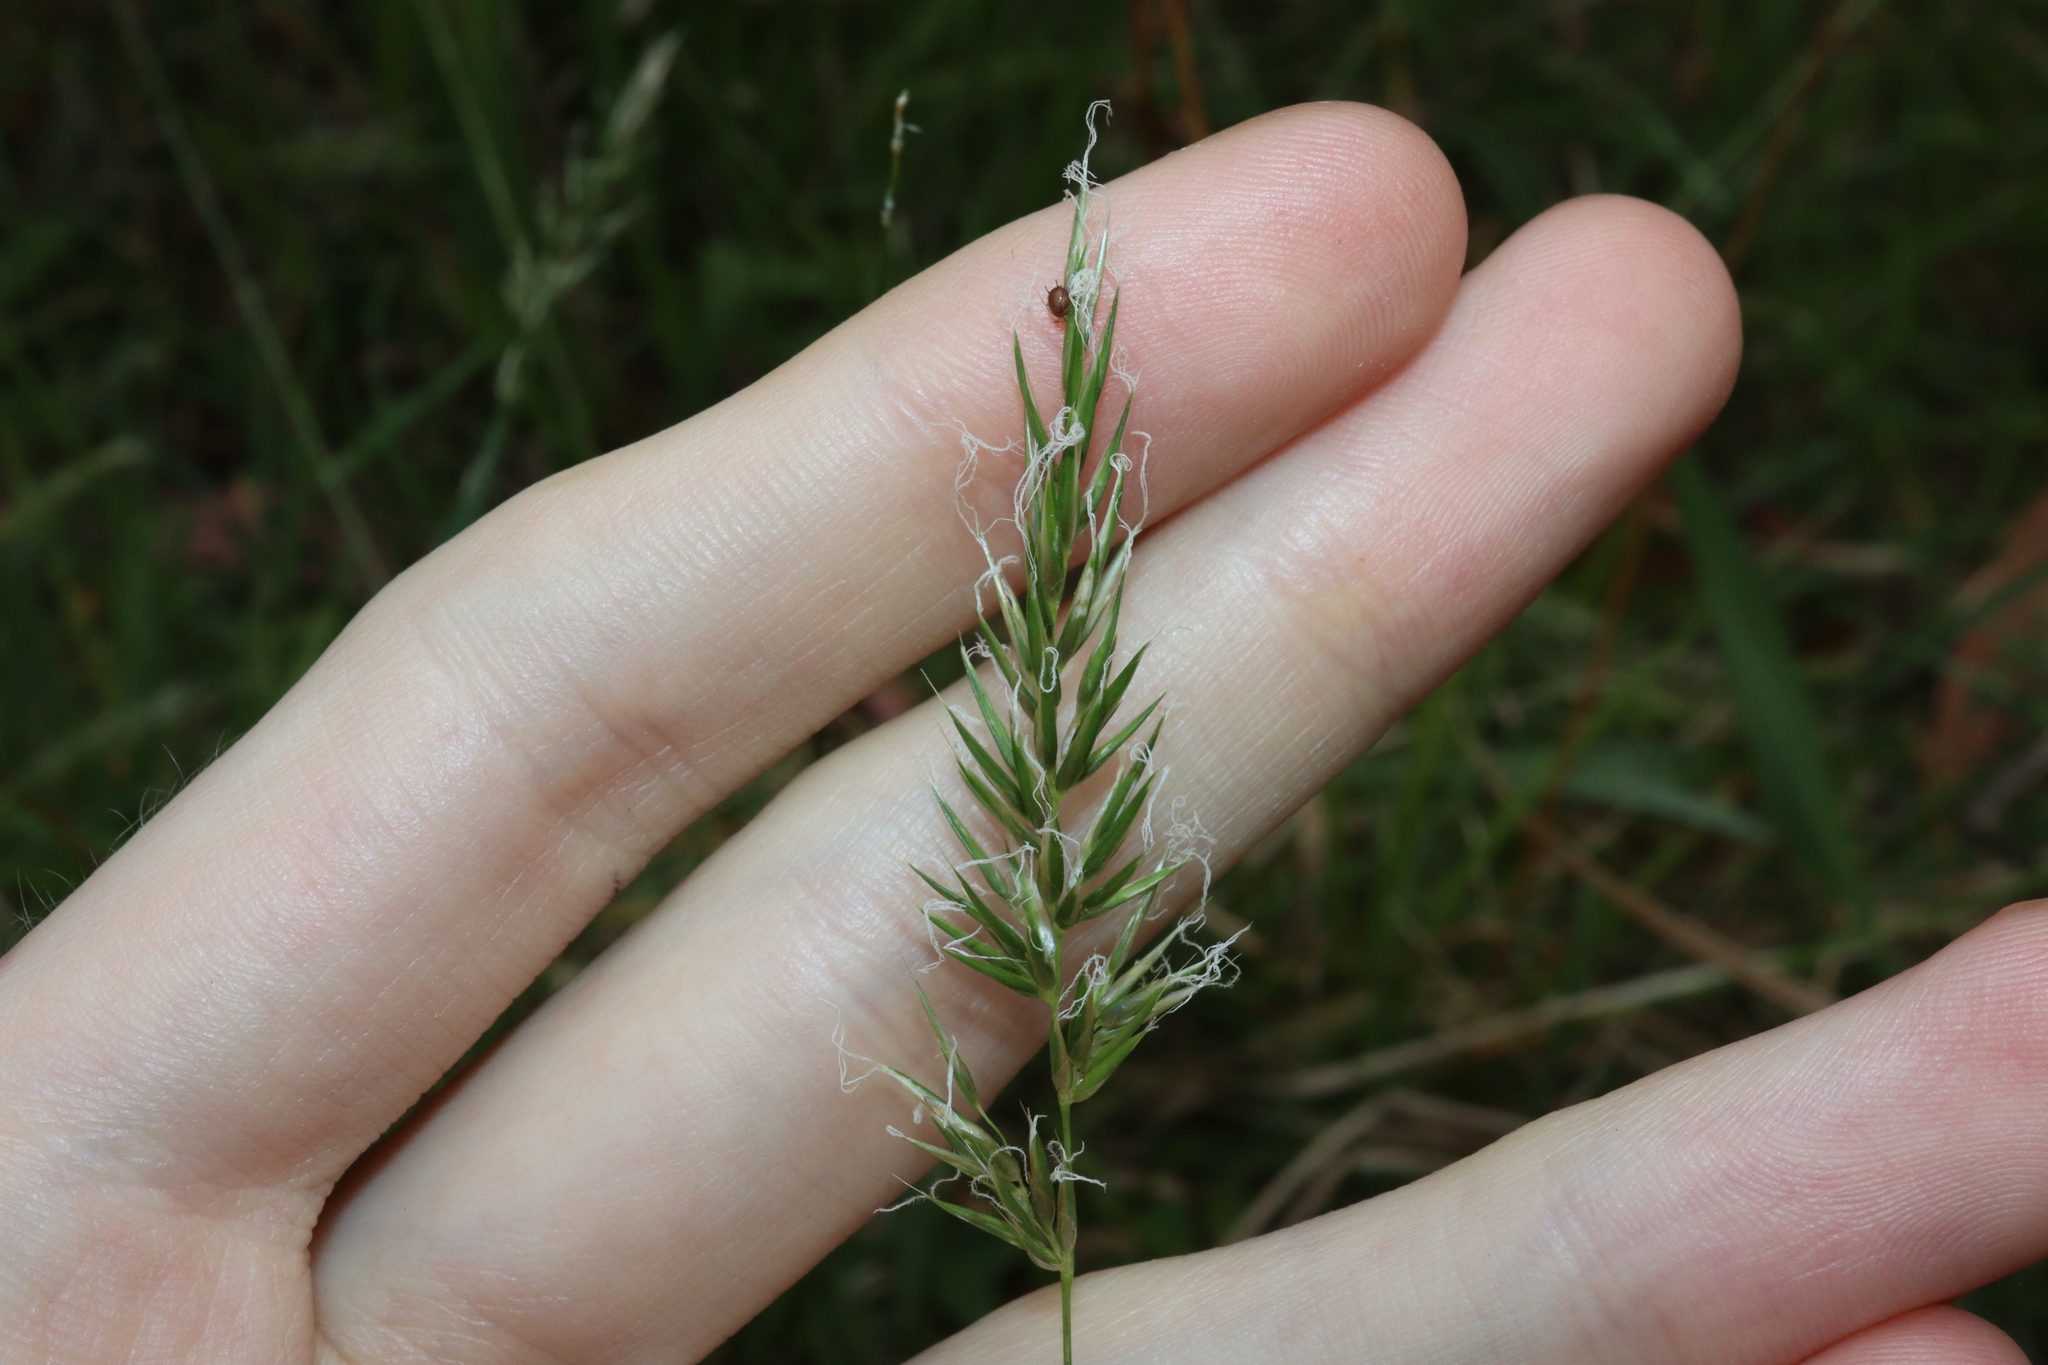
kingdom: Plantae
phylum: Tracheophyta
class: Liliopsida
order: Poales
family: Poaceae
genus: Anthoxanthum
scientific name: Anthoxanthum odoratum
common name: Sweet vernalgrass
